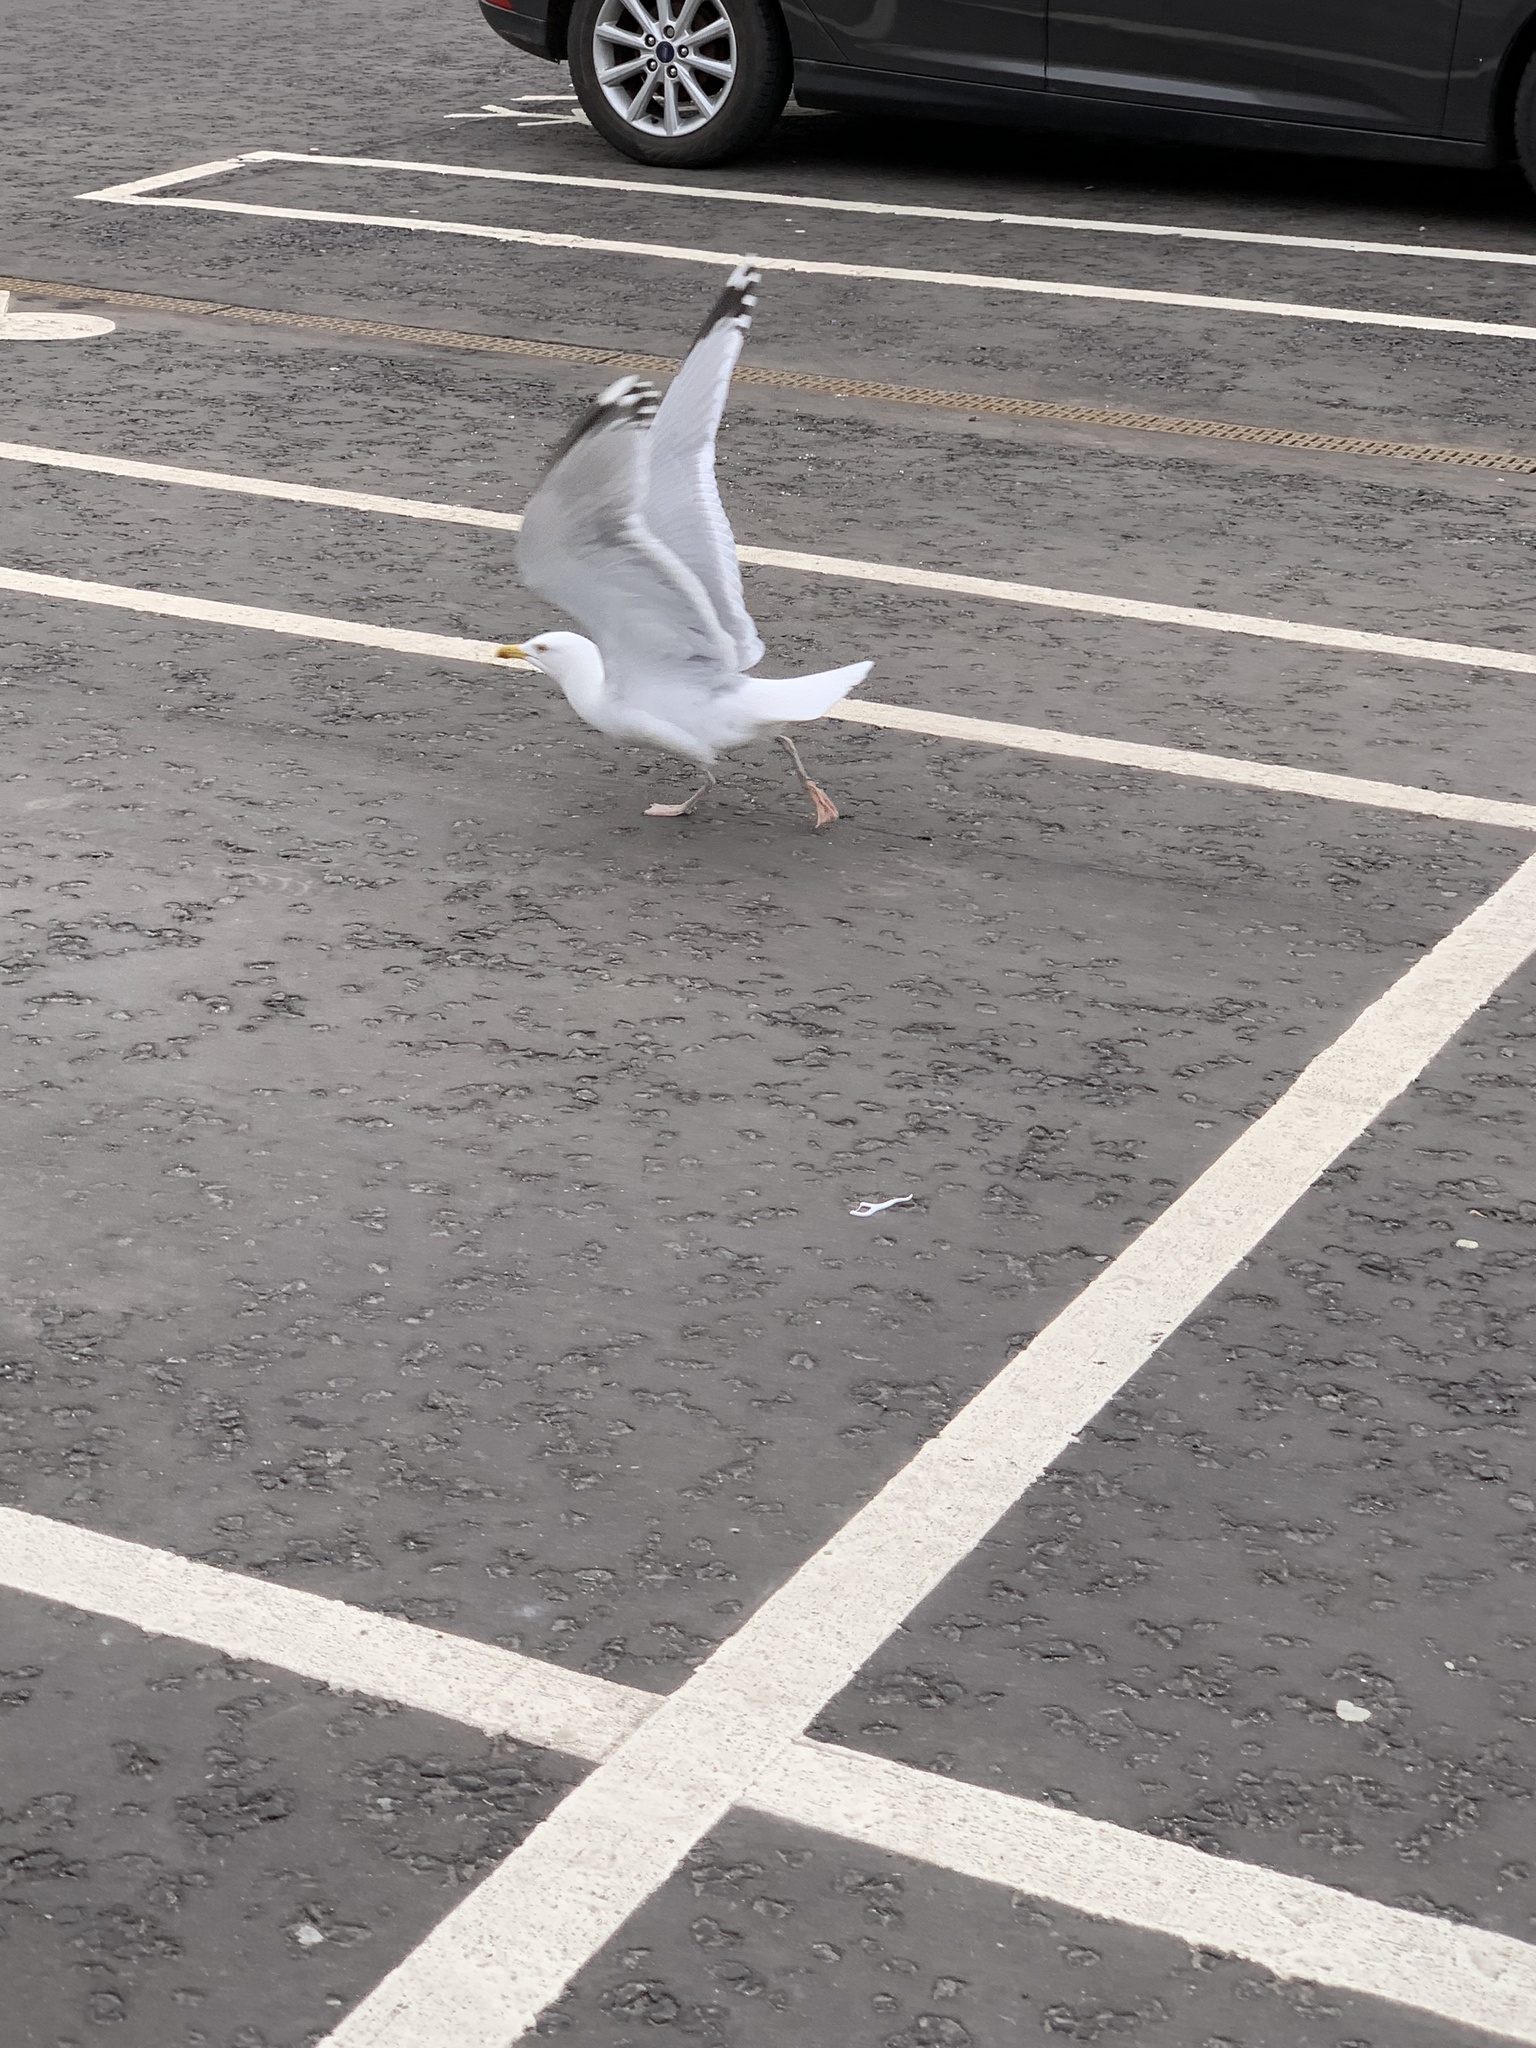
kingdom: Animalia
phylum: Chordata
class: Aves
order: Charadriiformes
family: Laridae
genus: Larus
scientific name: Larus argentatus
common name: Herring gull
